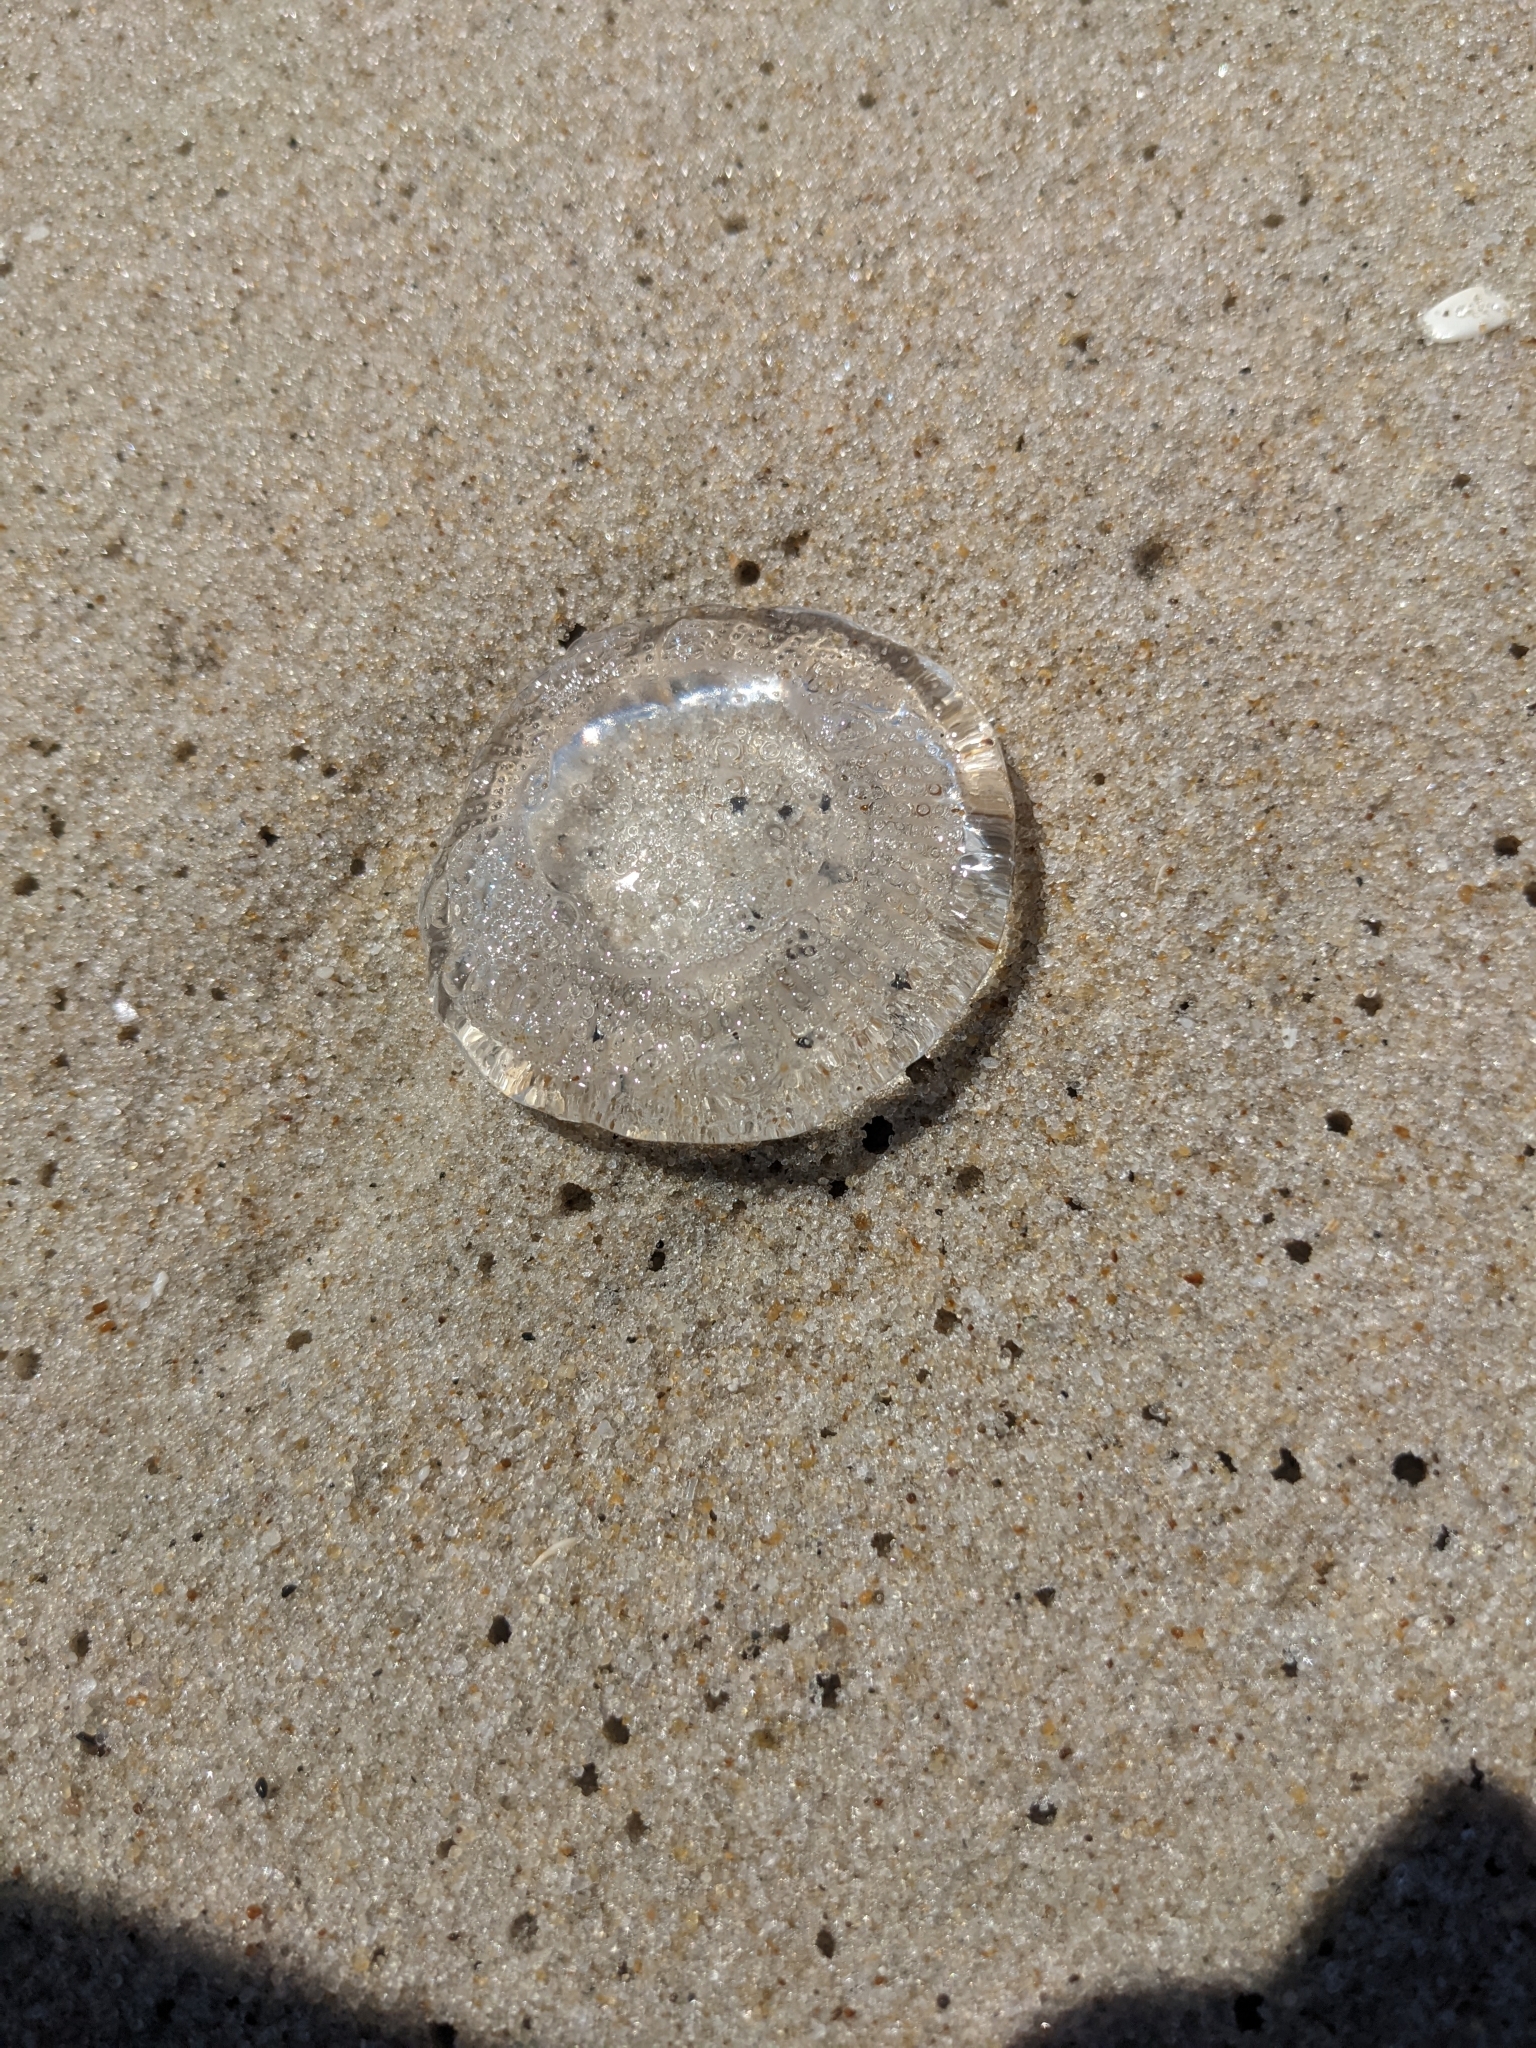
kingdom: Animalia
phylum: Cnidaria
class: Hydrozoa
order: Leptothecata
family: Aequoreidae
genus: Rhacostoma
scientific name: Rhacostoma atlanticum
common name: Lined water jelly
